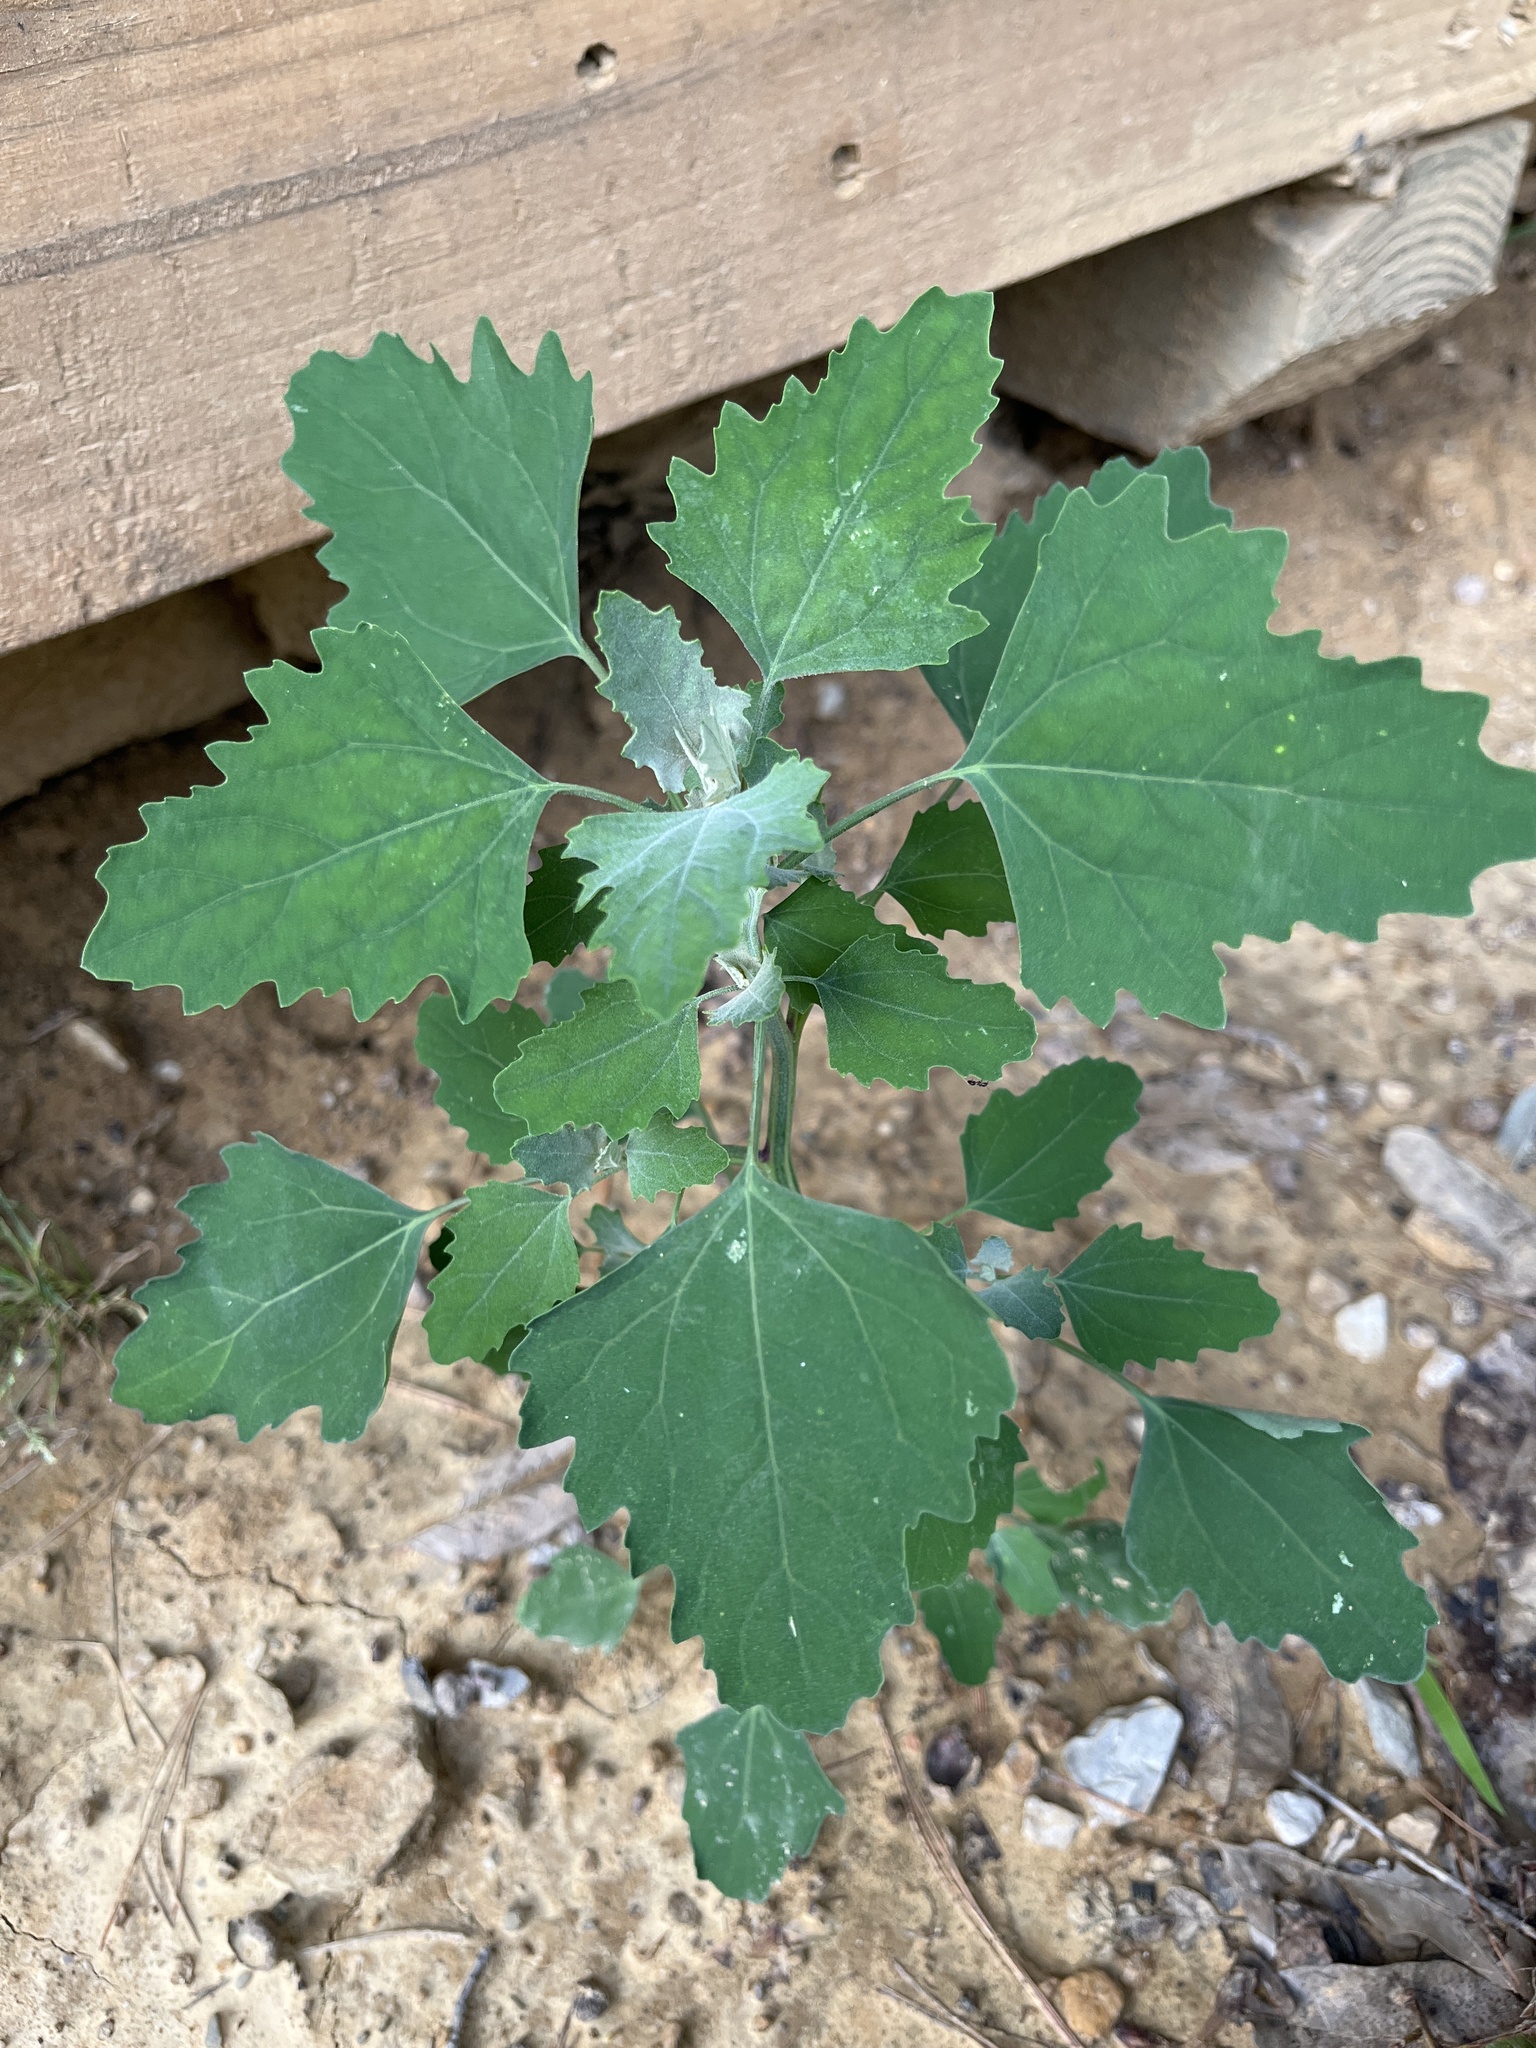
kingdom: Plantae
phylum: Tracheophyta
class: Magnoliopsida
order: Caryophyllales
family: Amaranthaceae
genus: Chenopodium
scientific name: Chenopodium album
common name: Fat-hen
